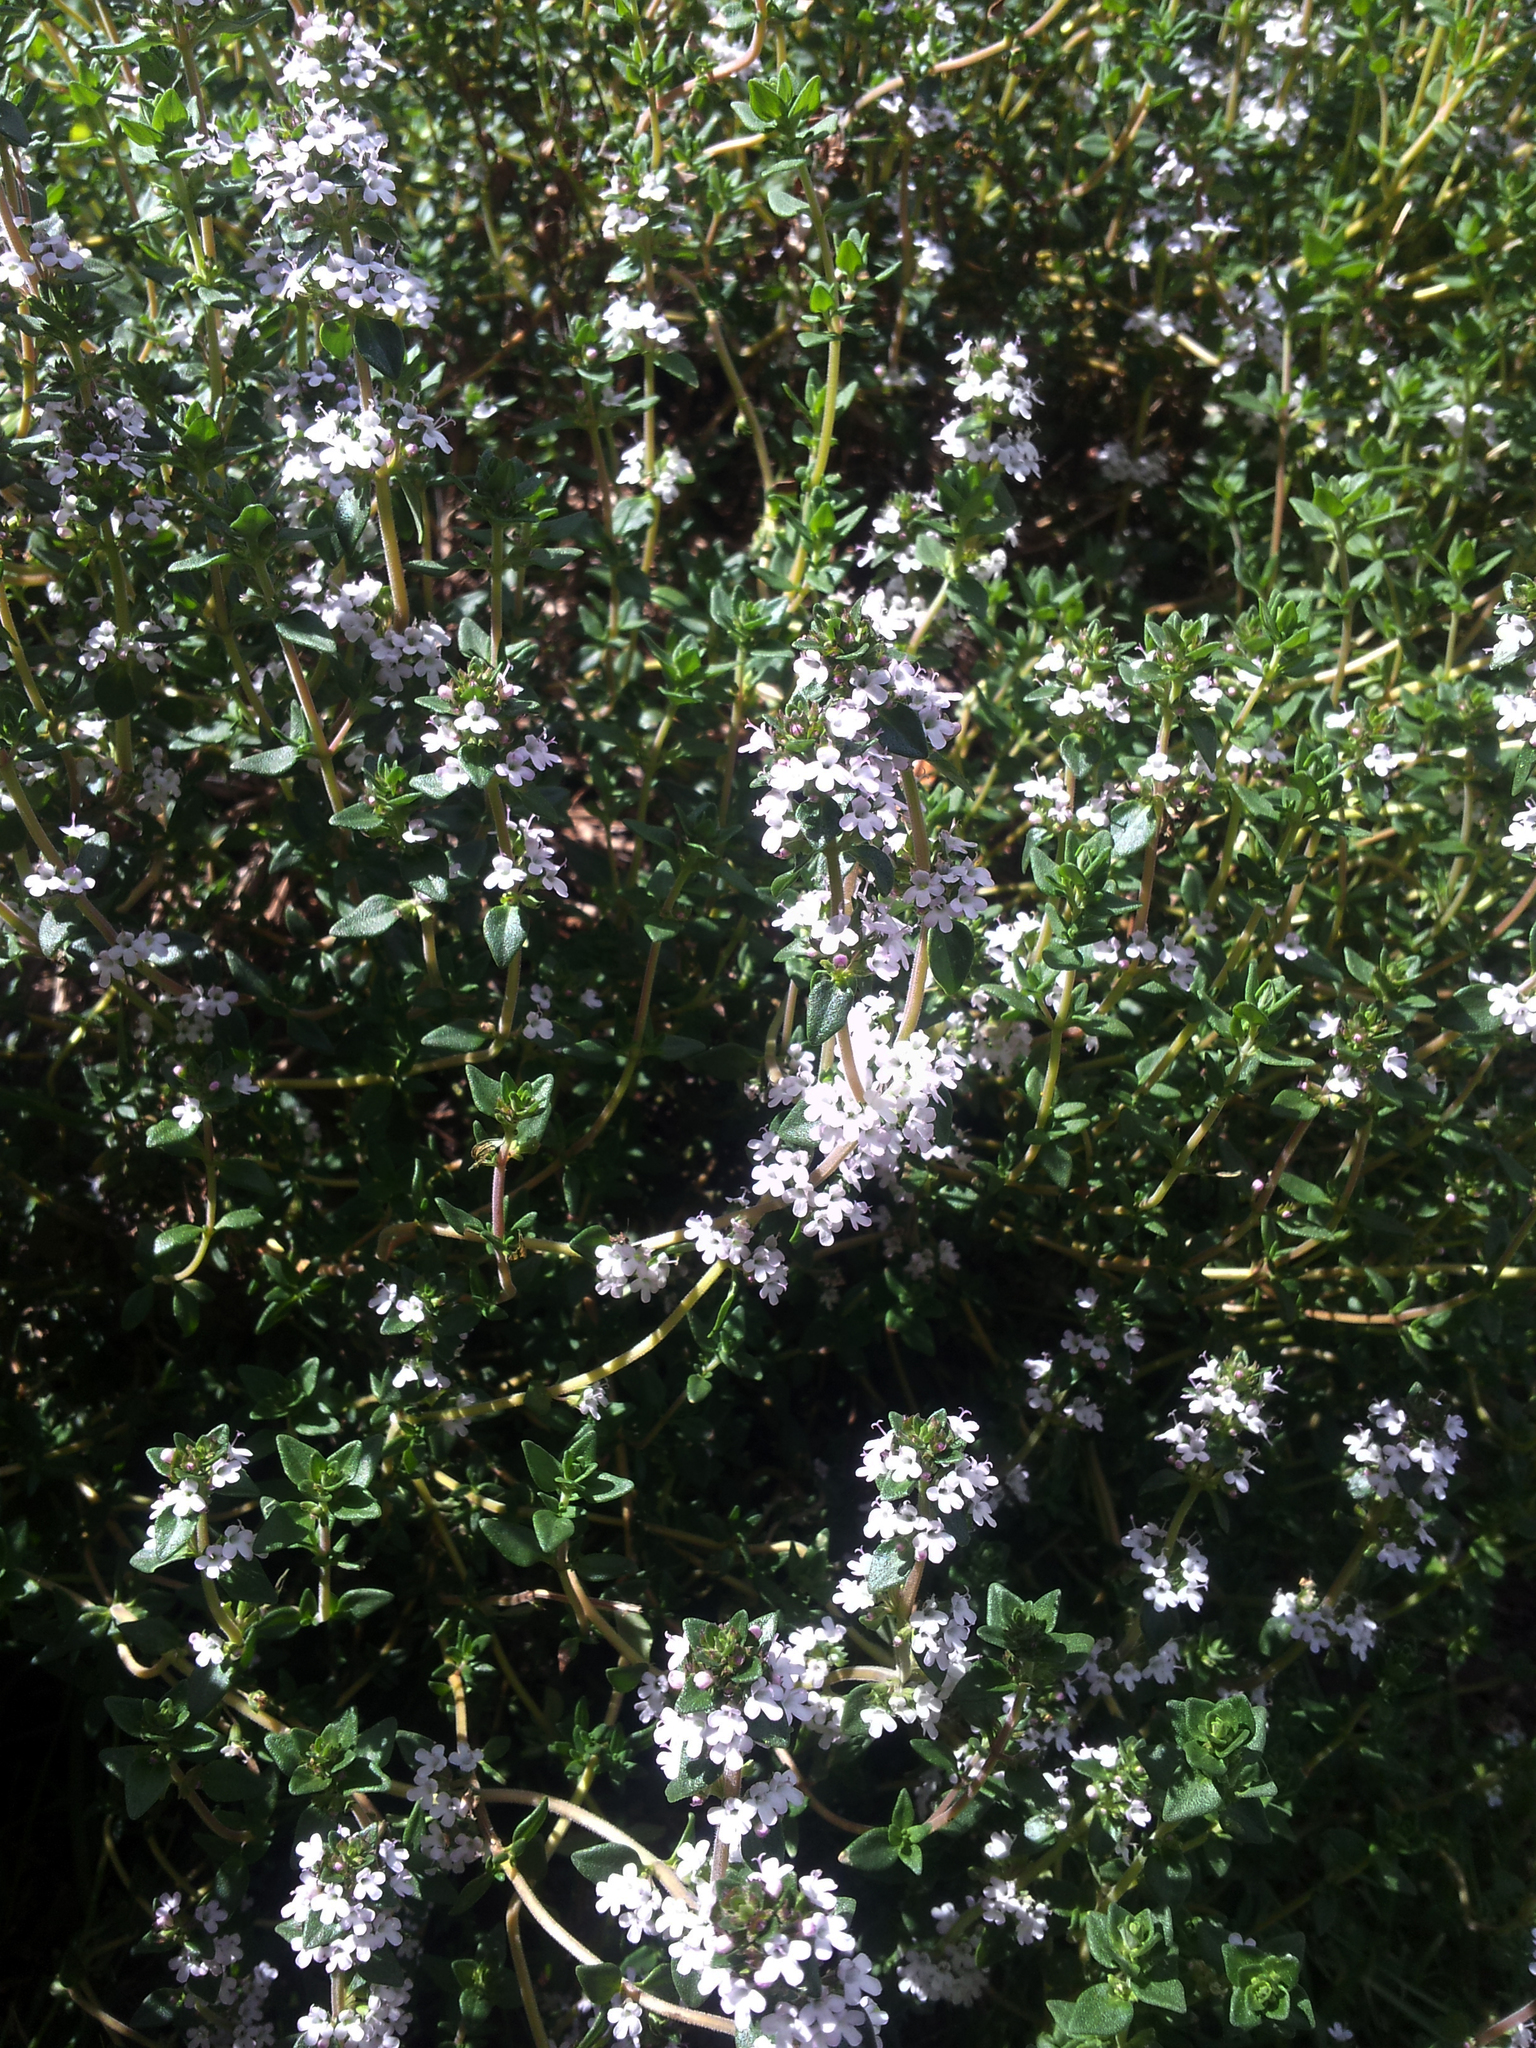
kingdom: Plantae
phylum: Tracheophyta
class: Magnoliopsida
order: Lamiales
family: Lamiaceae
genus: Thymus
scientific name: Thymus vulgaris
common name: Garden thyme
